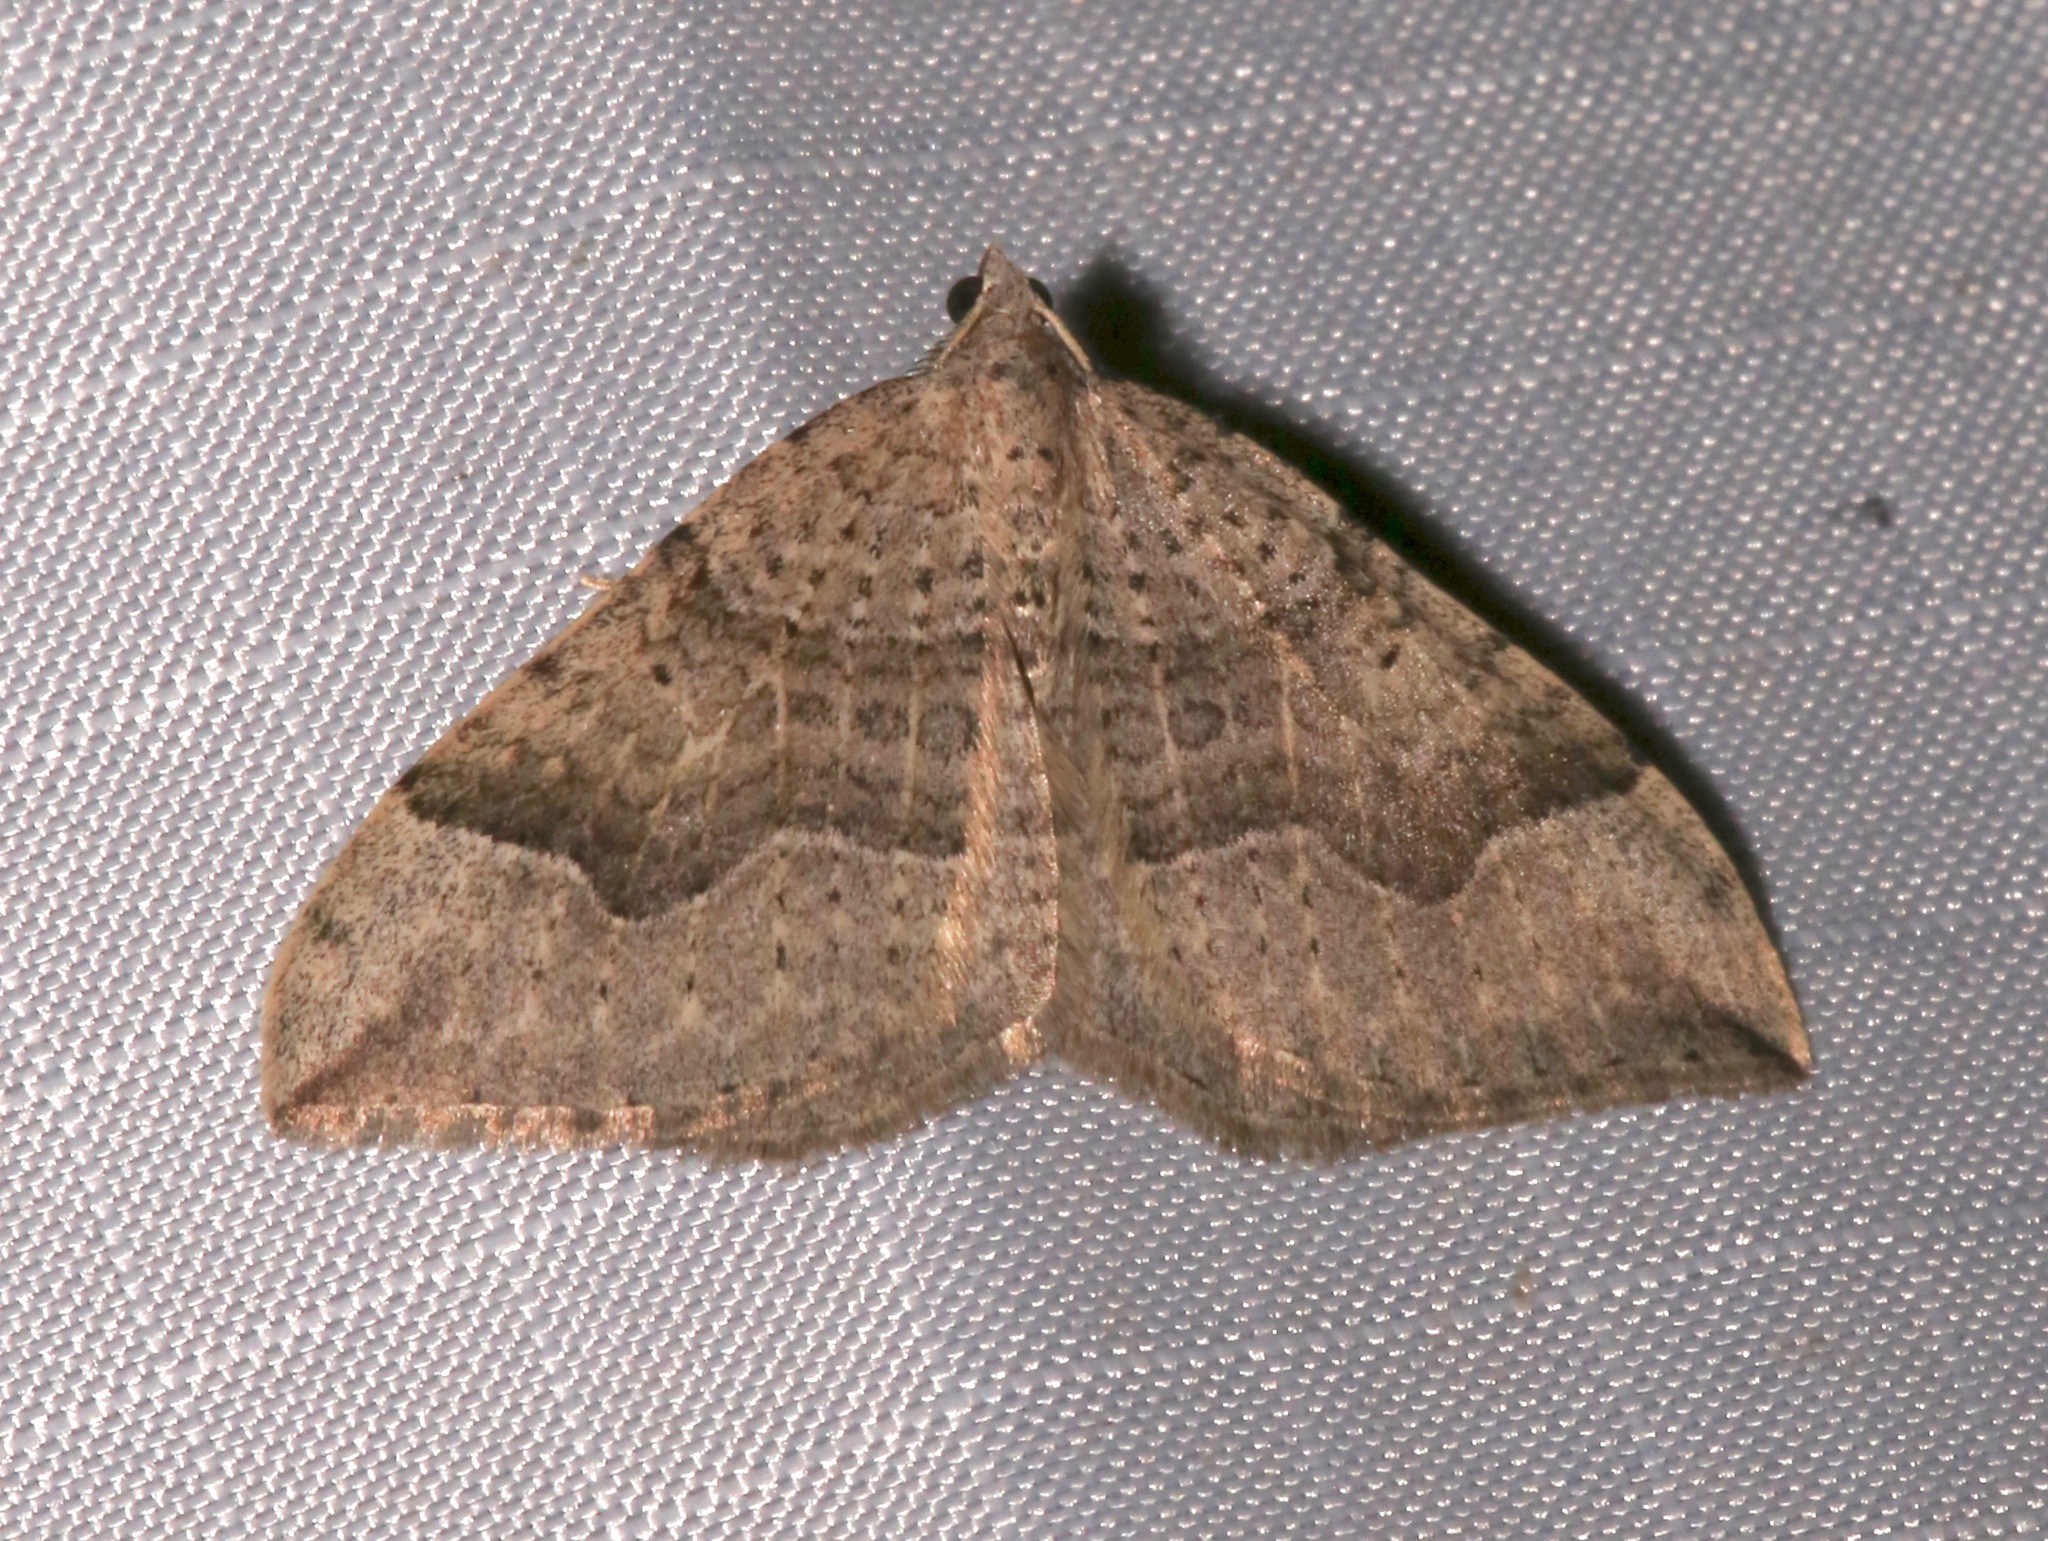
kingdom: Animalia
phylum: Arthropoda
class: Insecta
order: Lepidoptera
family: Geometridae
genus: Zenophleps
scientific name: Zenophleps lignicolorata
